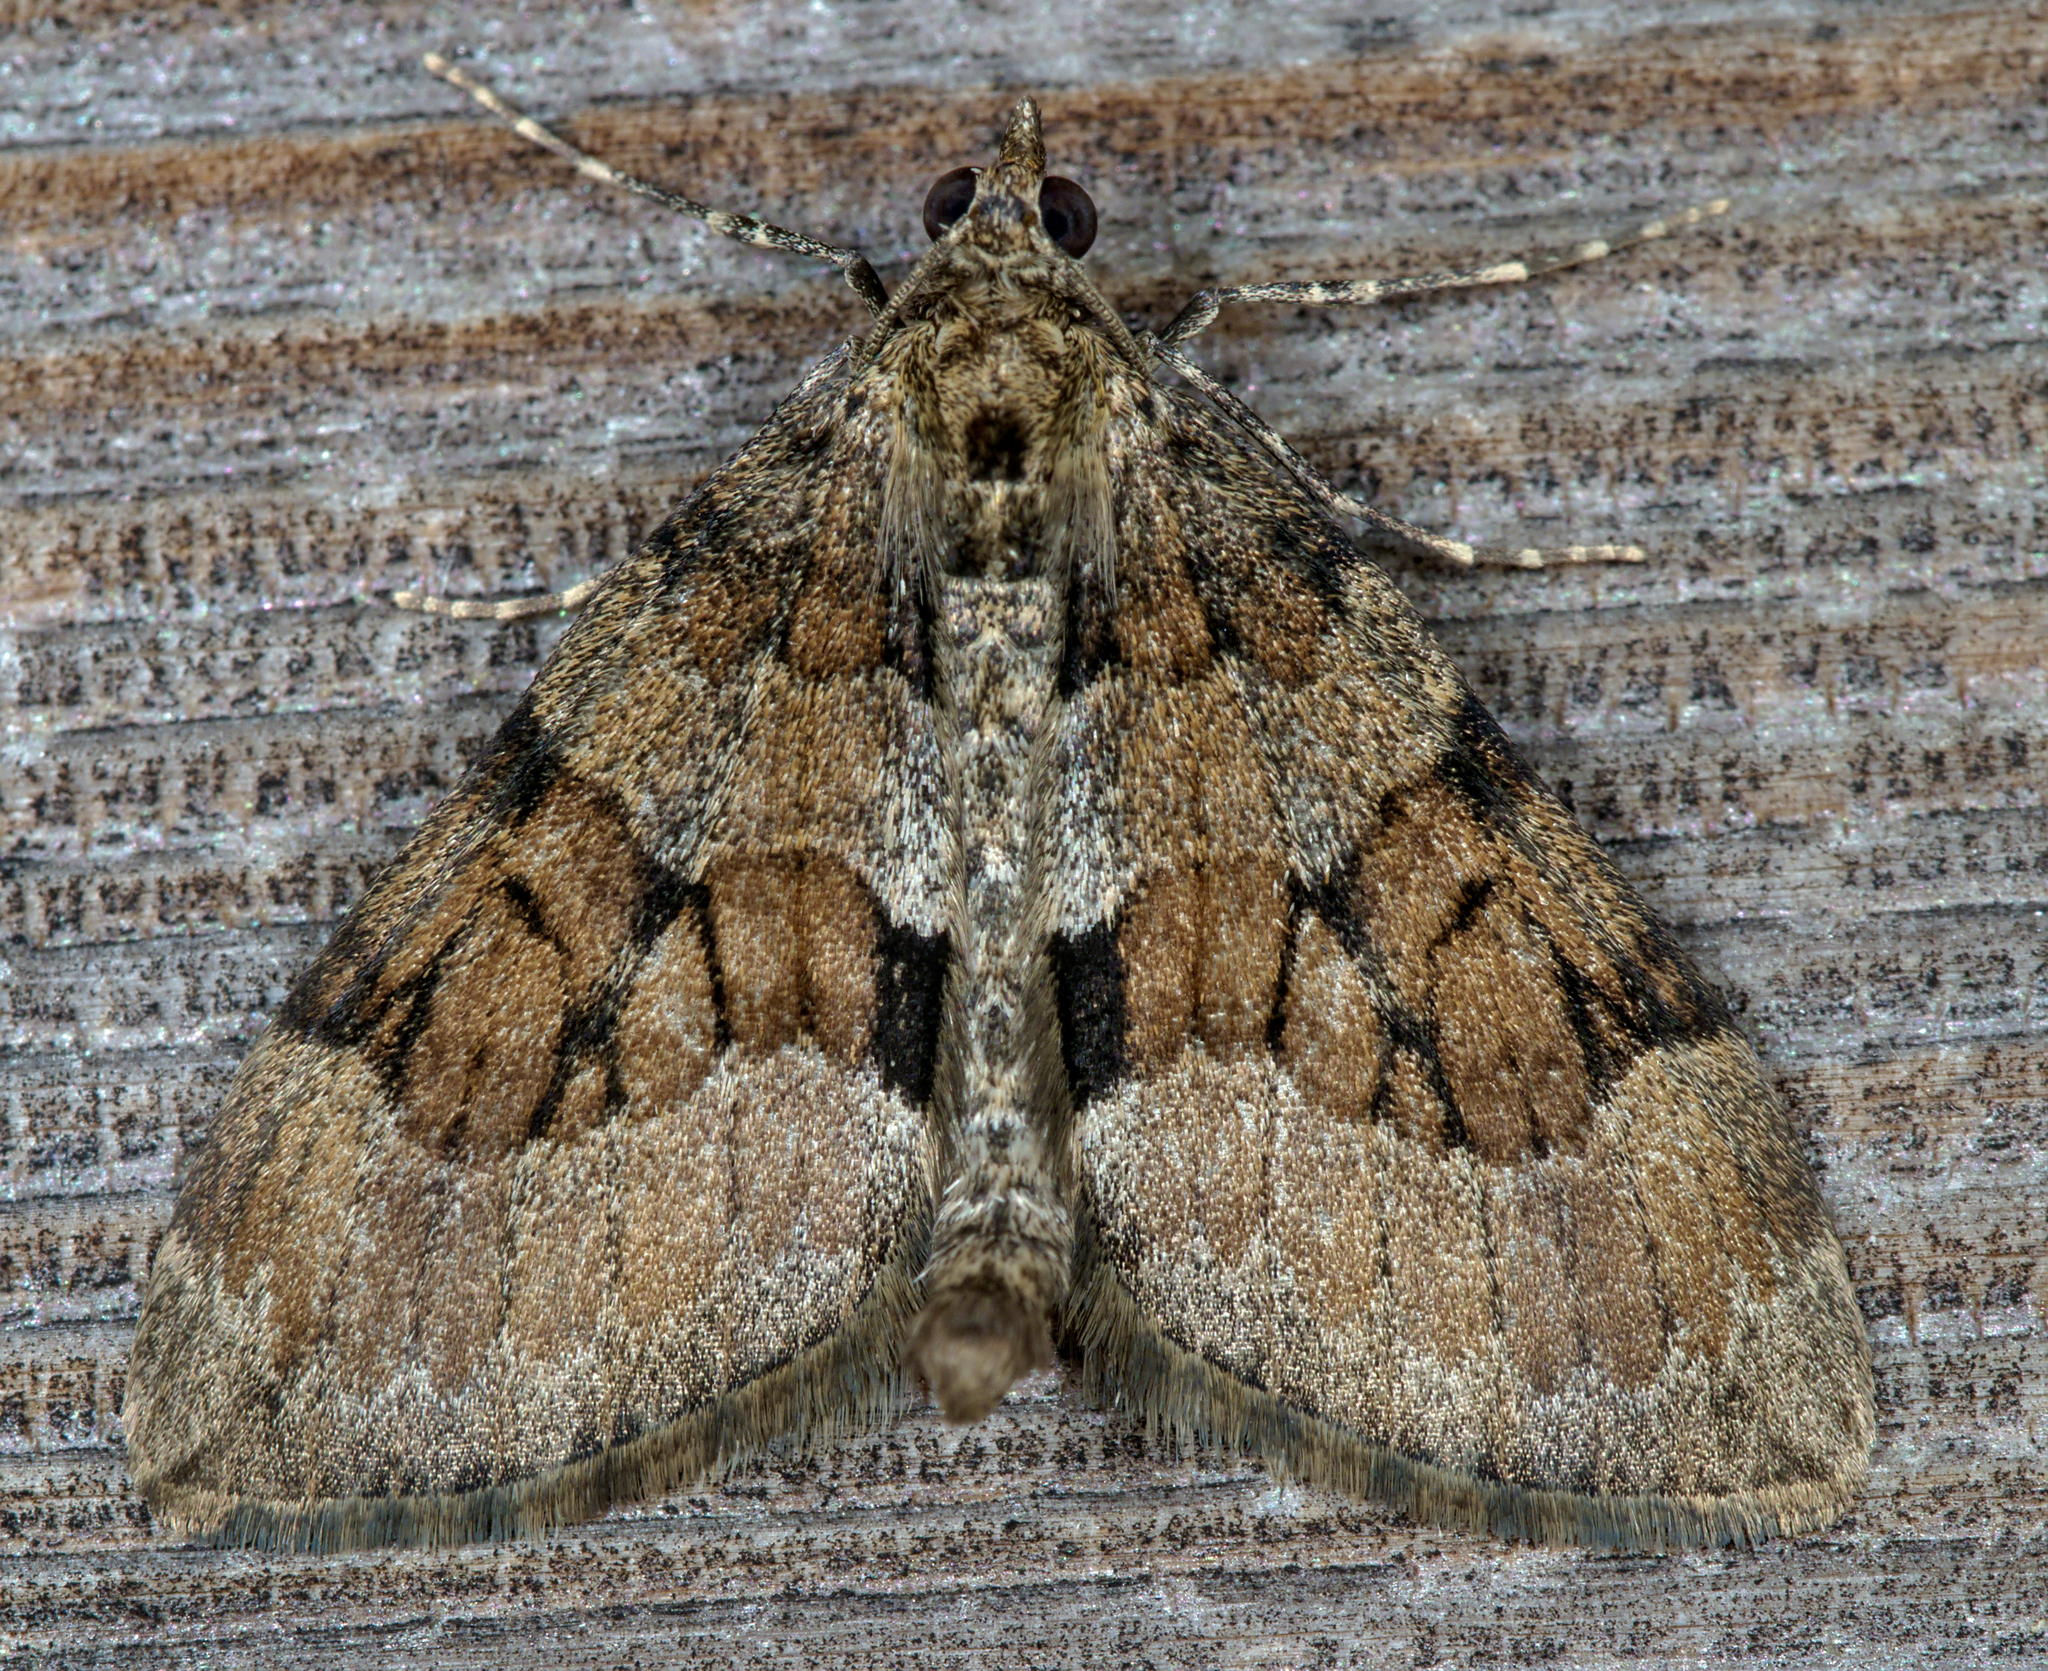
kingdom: Animalia
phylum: Arthropoda
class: Insecta
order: Lepidoptera
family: Geometridae
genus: Thera
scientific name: Thera obeliscata
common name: Grey pine carpet
